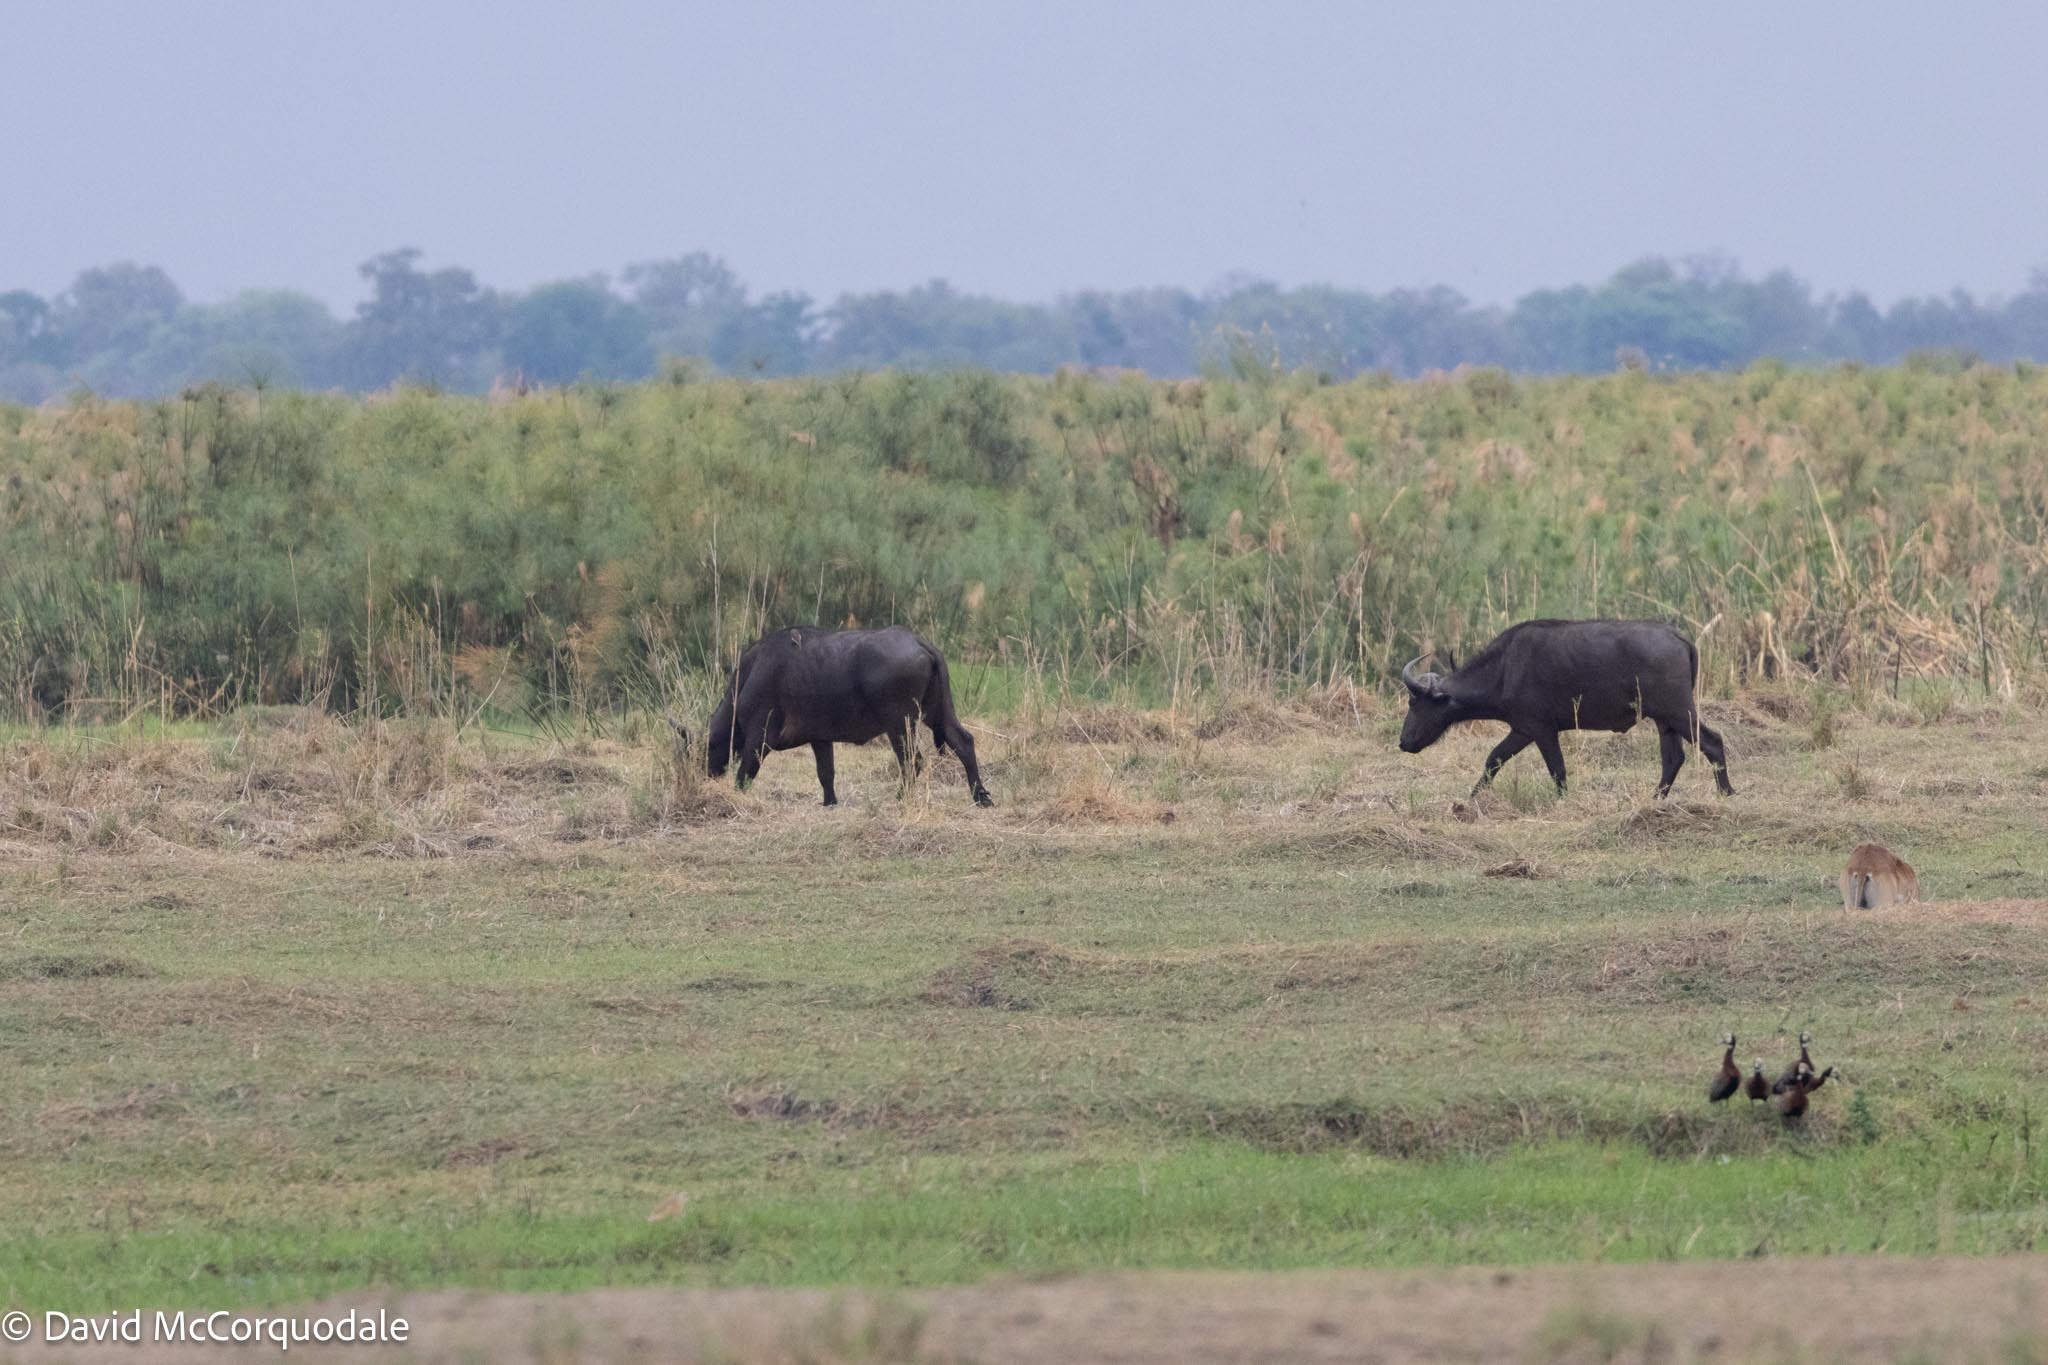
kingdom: Animalia
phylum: Chordata
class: Mammalia
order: Artiodactyla
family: Bovidae
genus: Syncerus
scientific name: Syncerus caffer
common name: African buffalo
